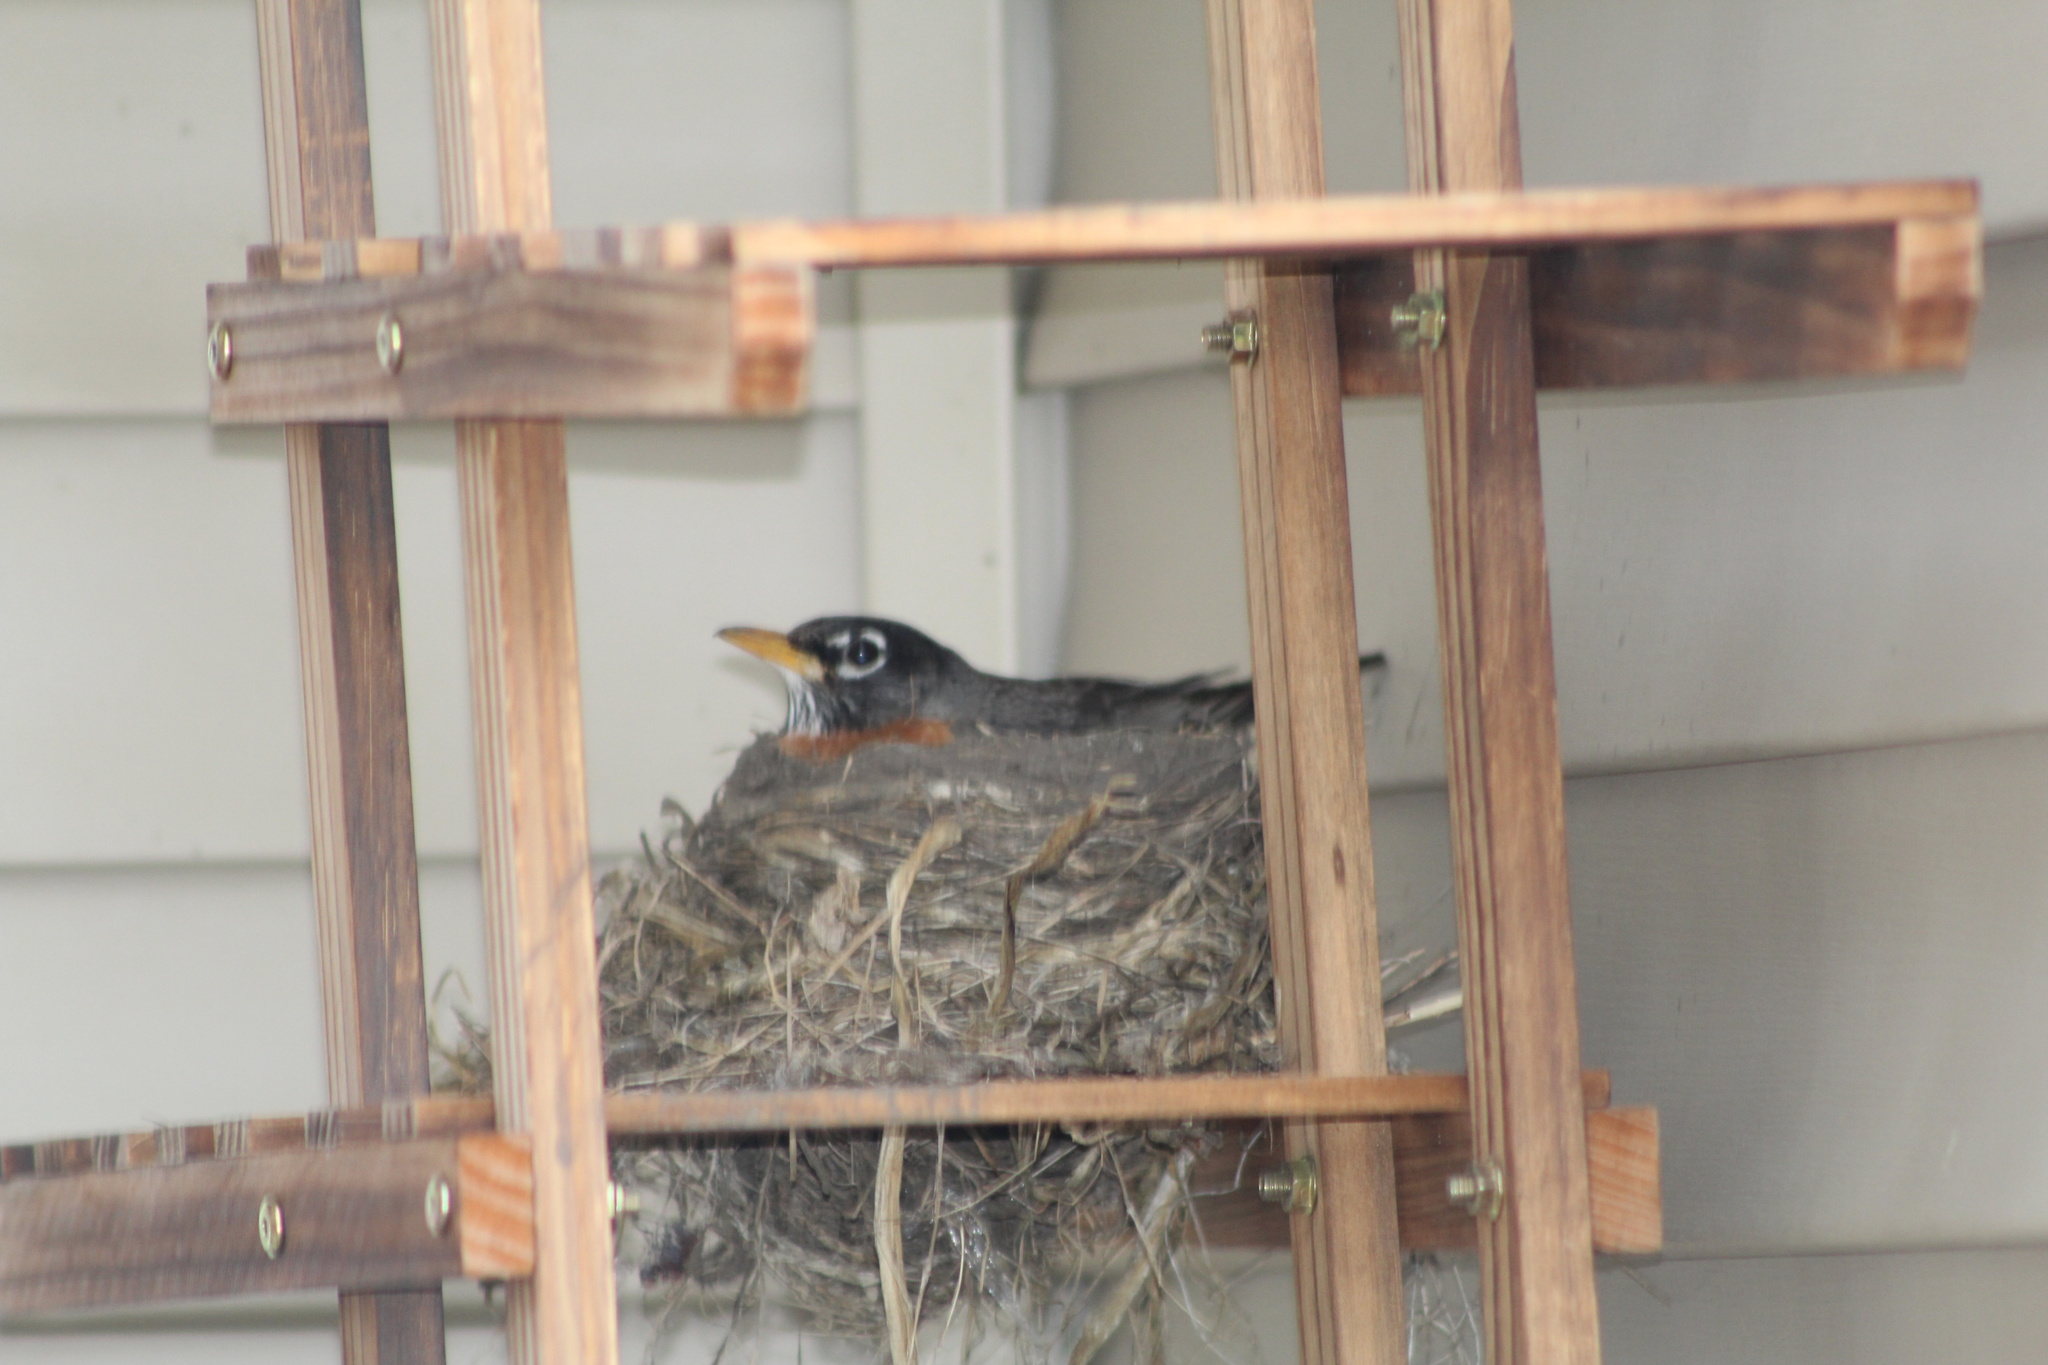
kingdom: Animalia
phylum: Chordata
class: Aves
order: Passeriformes
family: Turdidae
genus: Turdus
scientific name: Turdus migratorius
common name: American robin
